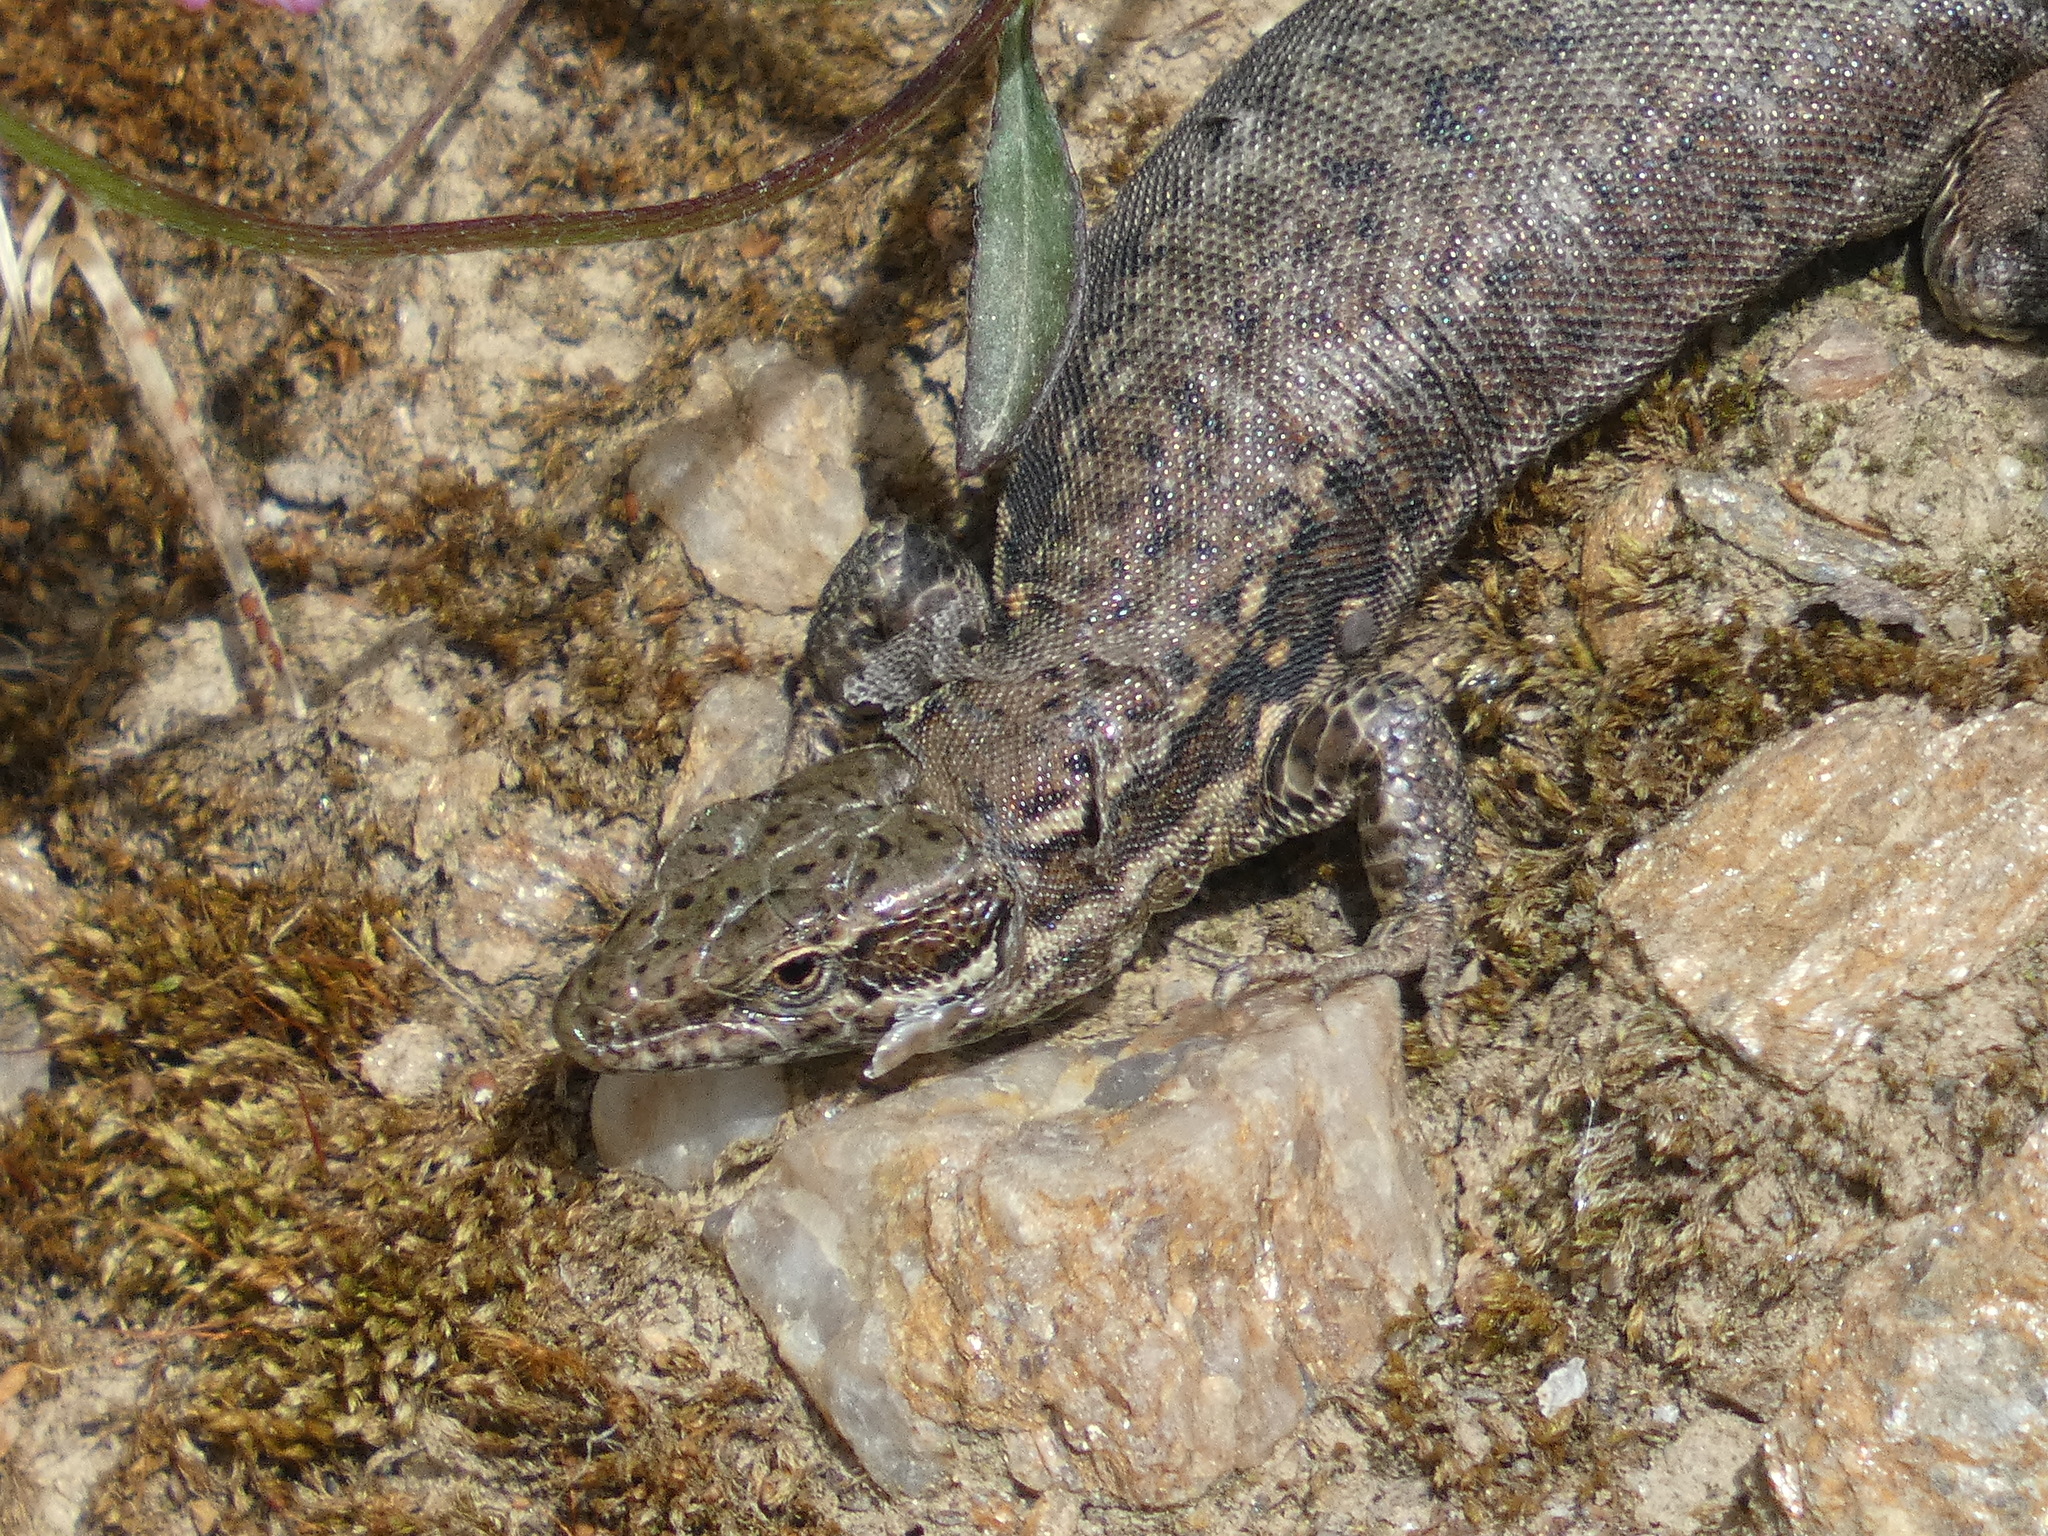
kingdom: Animalia
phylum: Chordata
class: Squamata
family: Lacertidae
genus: Podarcis
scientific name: Podarcis muralis
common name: Common wall lizard
